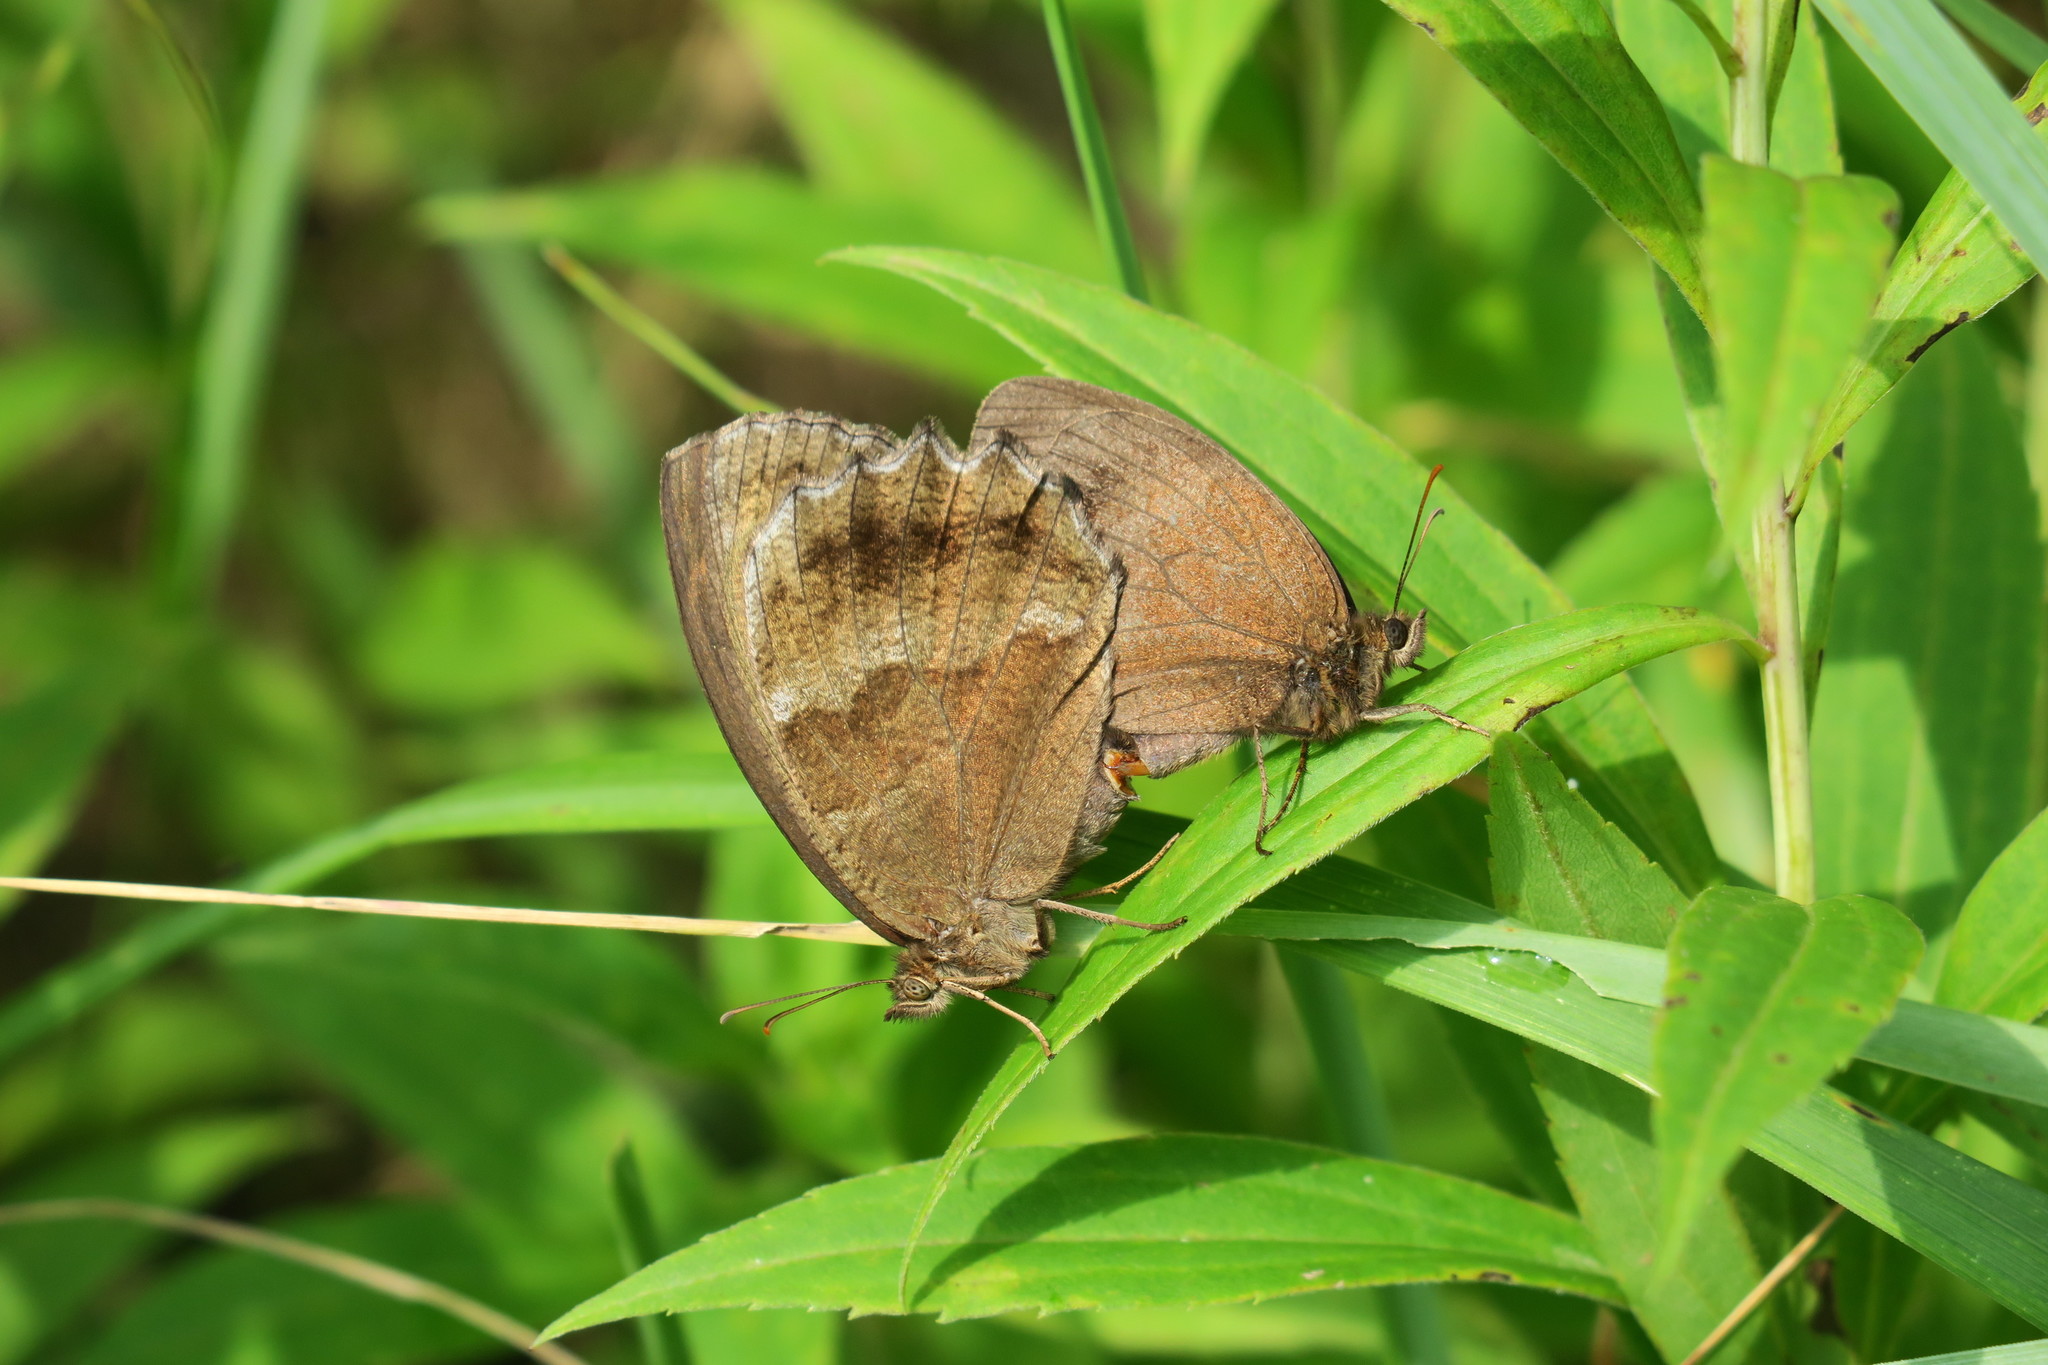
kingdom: Animalia
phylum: Arthropoda
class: Insecta
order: Lepidoptera
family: Nymphalidae
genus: Minois
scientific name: Minois dryas
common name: Dryad
